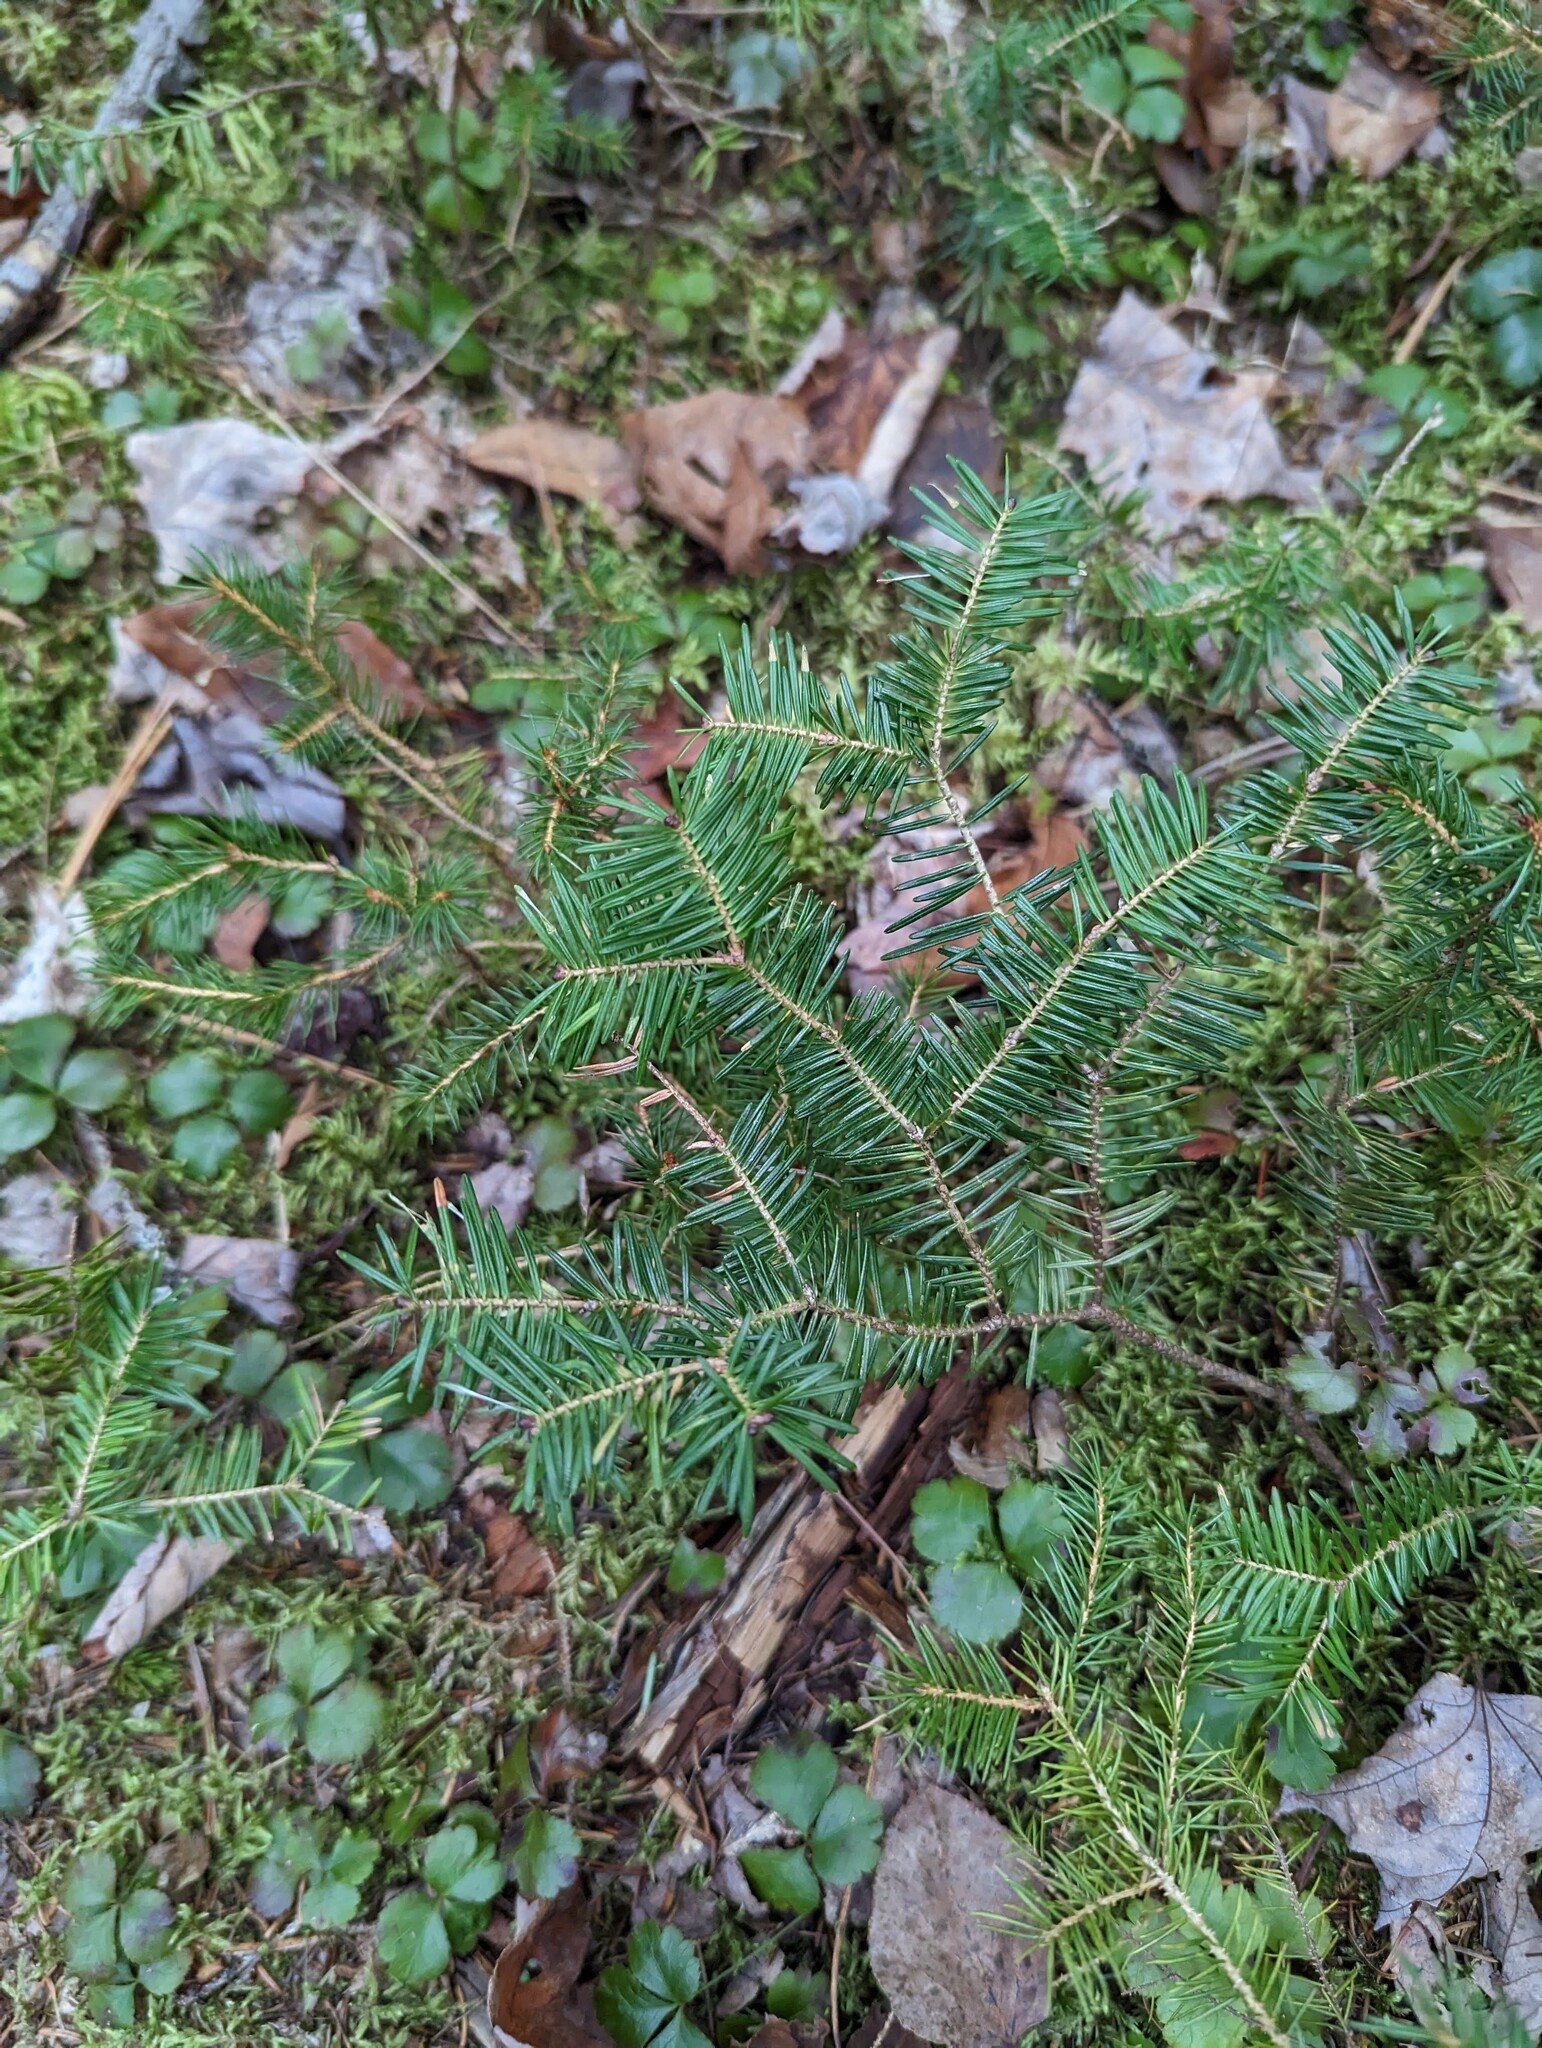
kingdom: Plantae
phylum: Tracheophyta
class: Pinopsida
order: Pinales
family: Pinaceae
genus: Abies
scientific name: Abies balsamea
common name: Balsam fir
